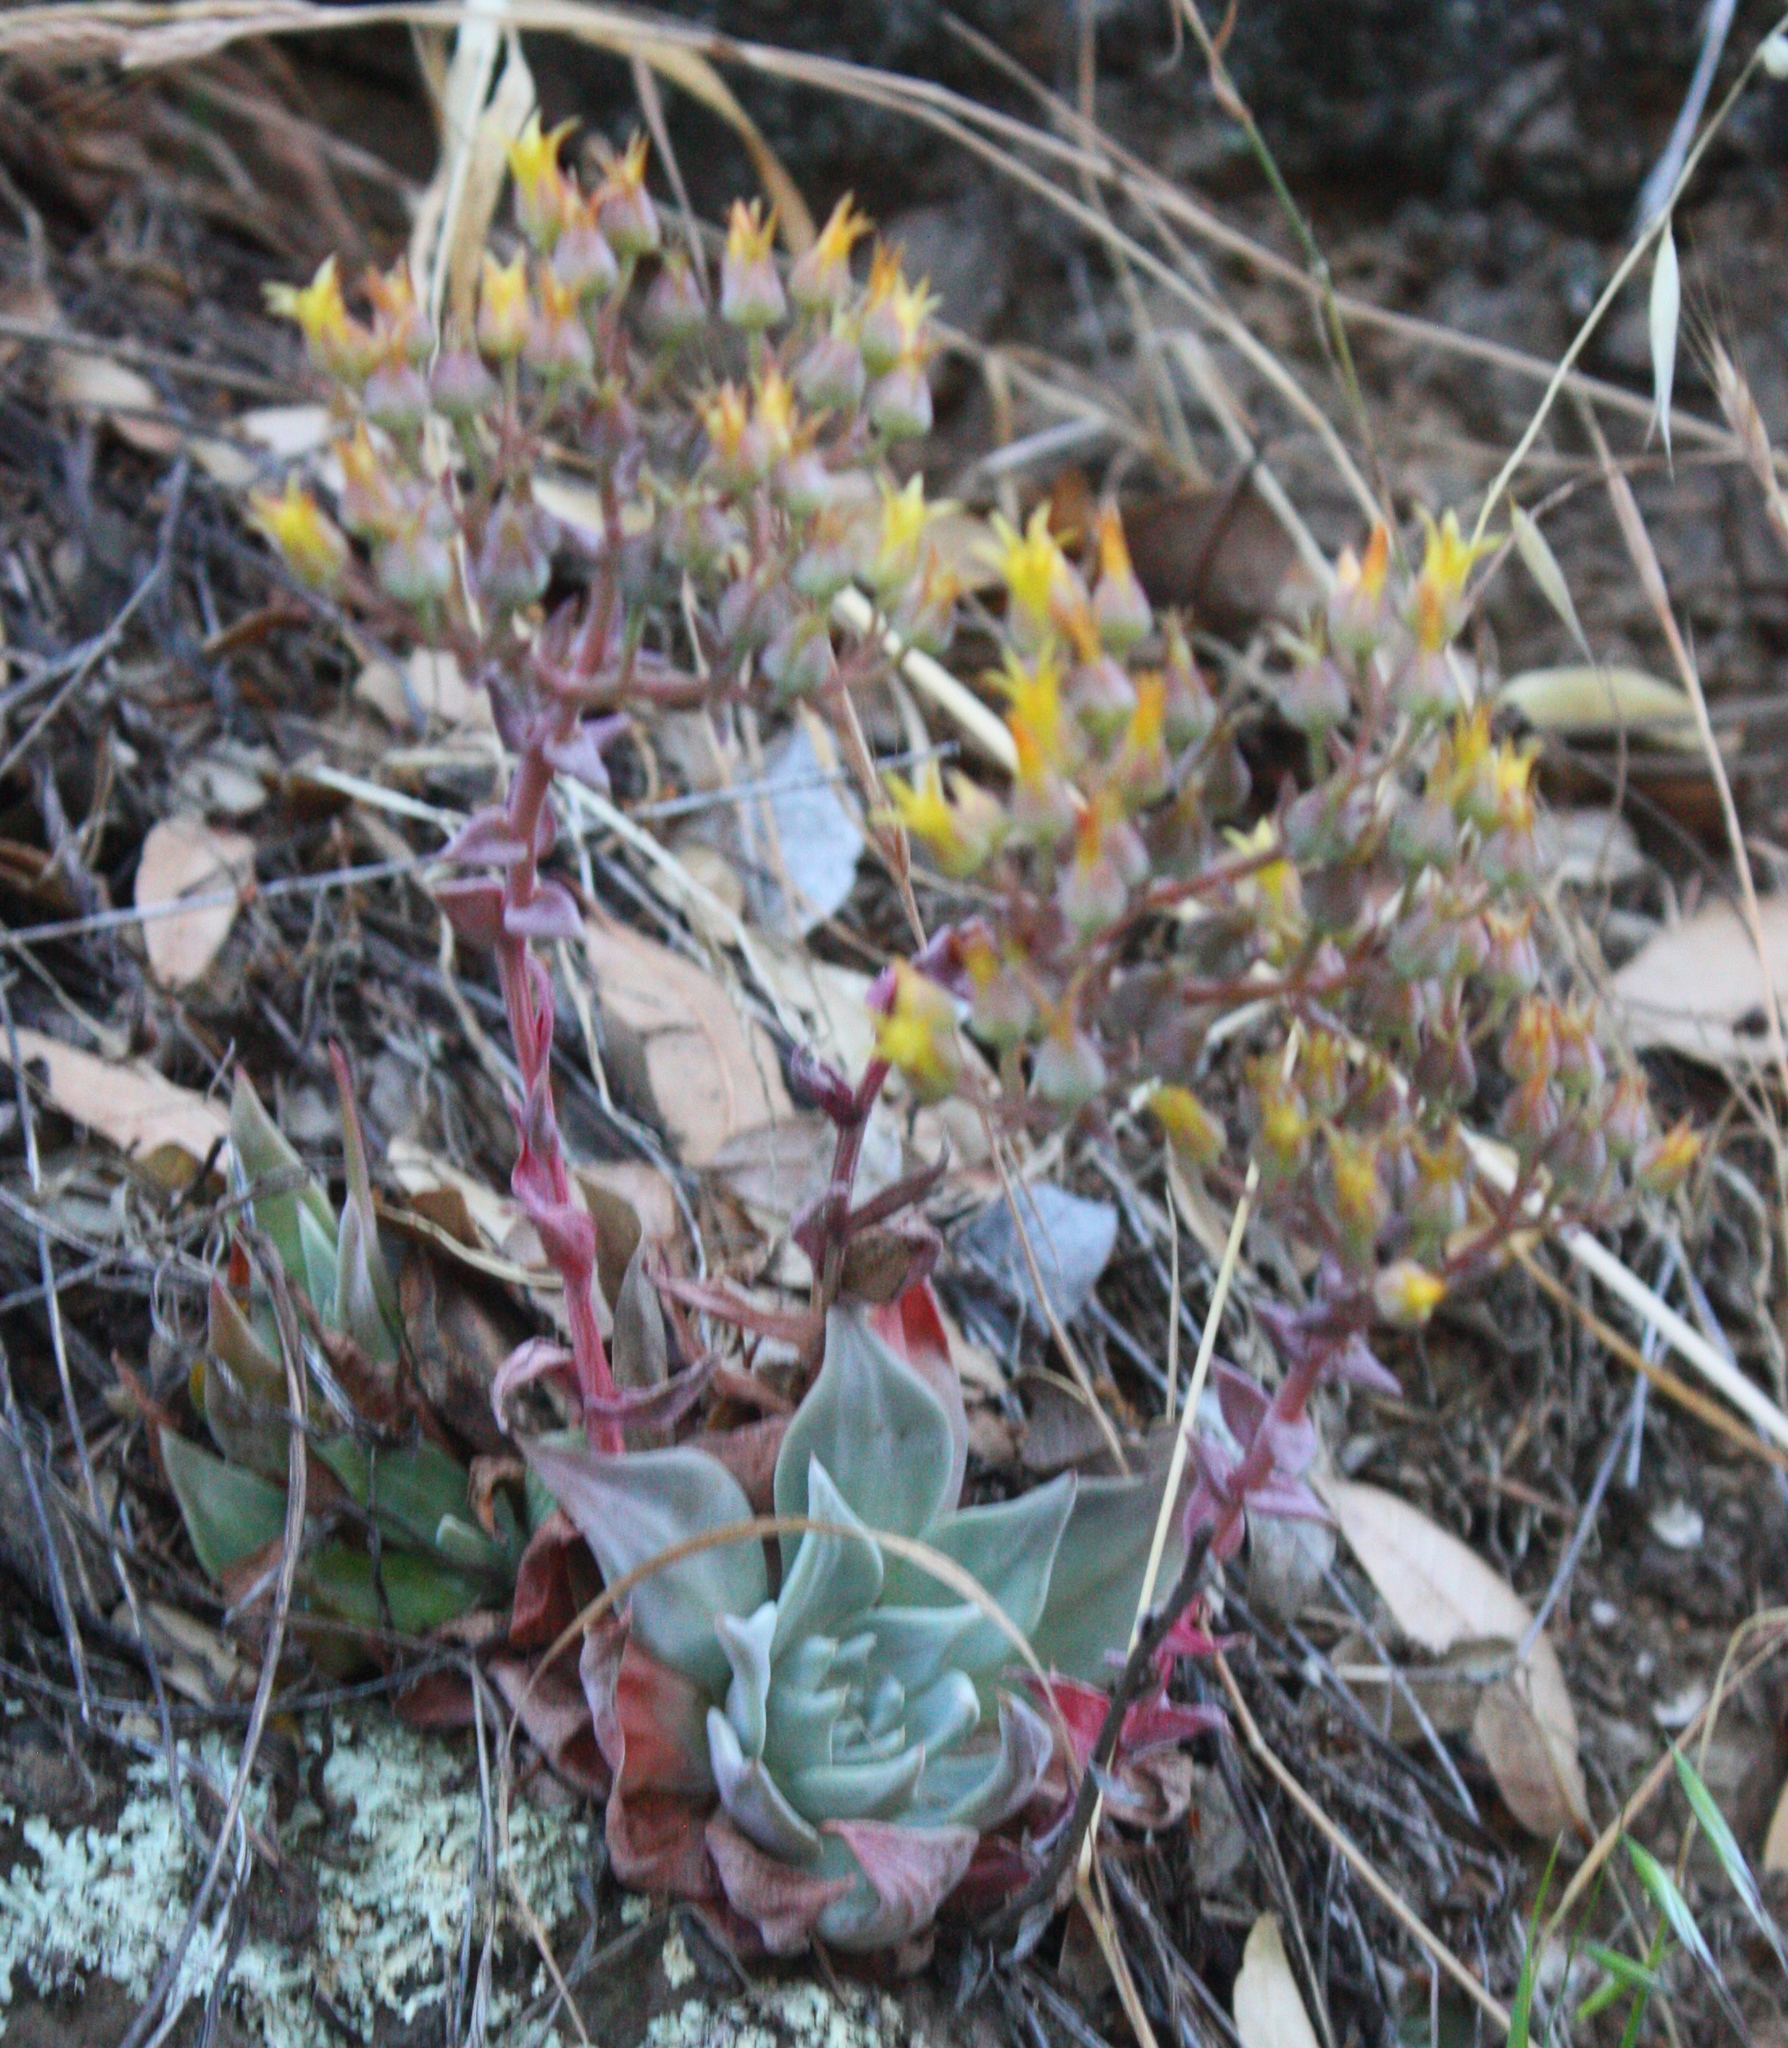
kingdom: Plantae
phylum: Tracheophyta
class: Magnoliopsida
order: Saxifragales
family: Crassulaceae
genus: Dudleya
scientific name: Dudleya cymosa
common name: Canyon dudleya
